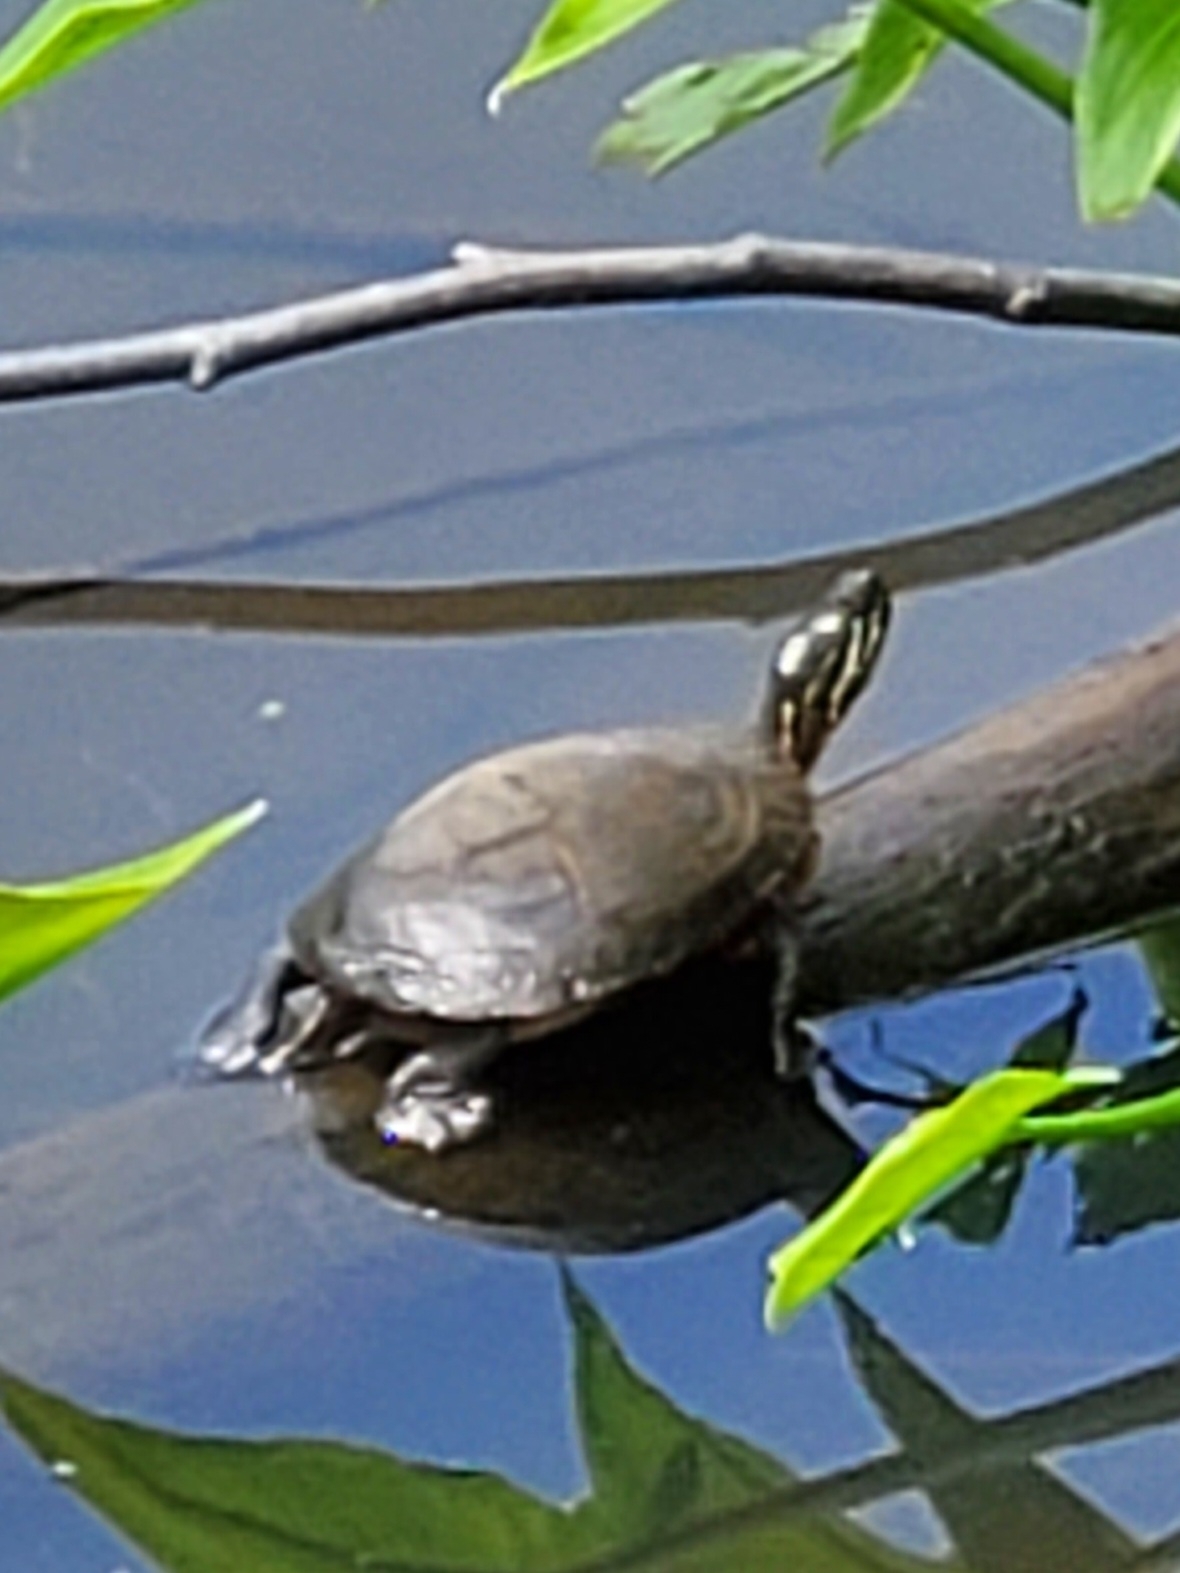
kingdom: Animalia
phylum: Chordata
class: Testudines
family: Emydidae
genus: Chrysemys
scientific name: Chrysemys picta
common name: Painted turtle
